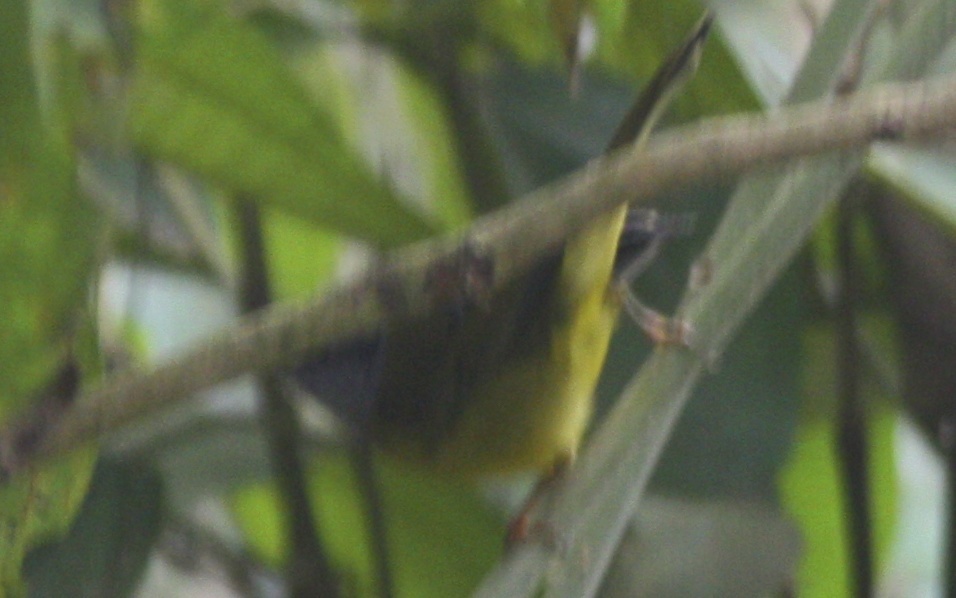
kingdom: Animalia
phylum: Chordata
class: Aves
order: Passeriformes
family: Parulidae
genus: Myiothlypis
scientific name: Myiothlypis coronata
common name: Russet-crowned warbler
